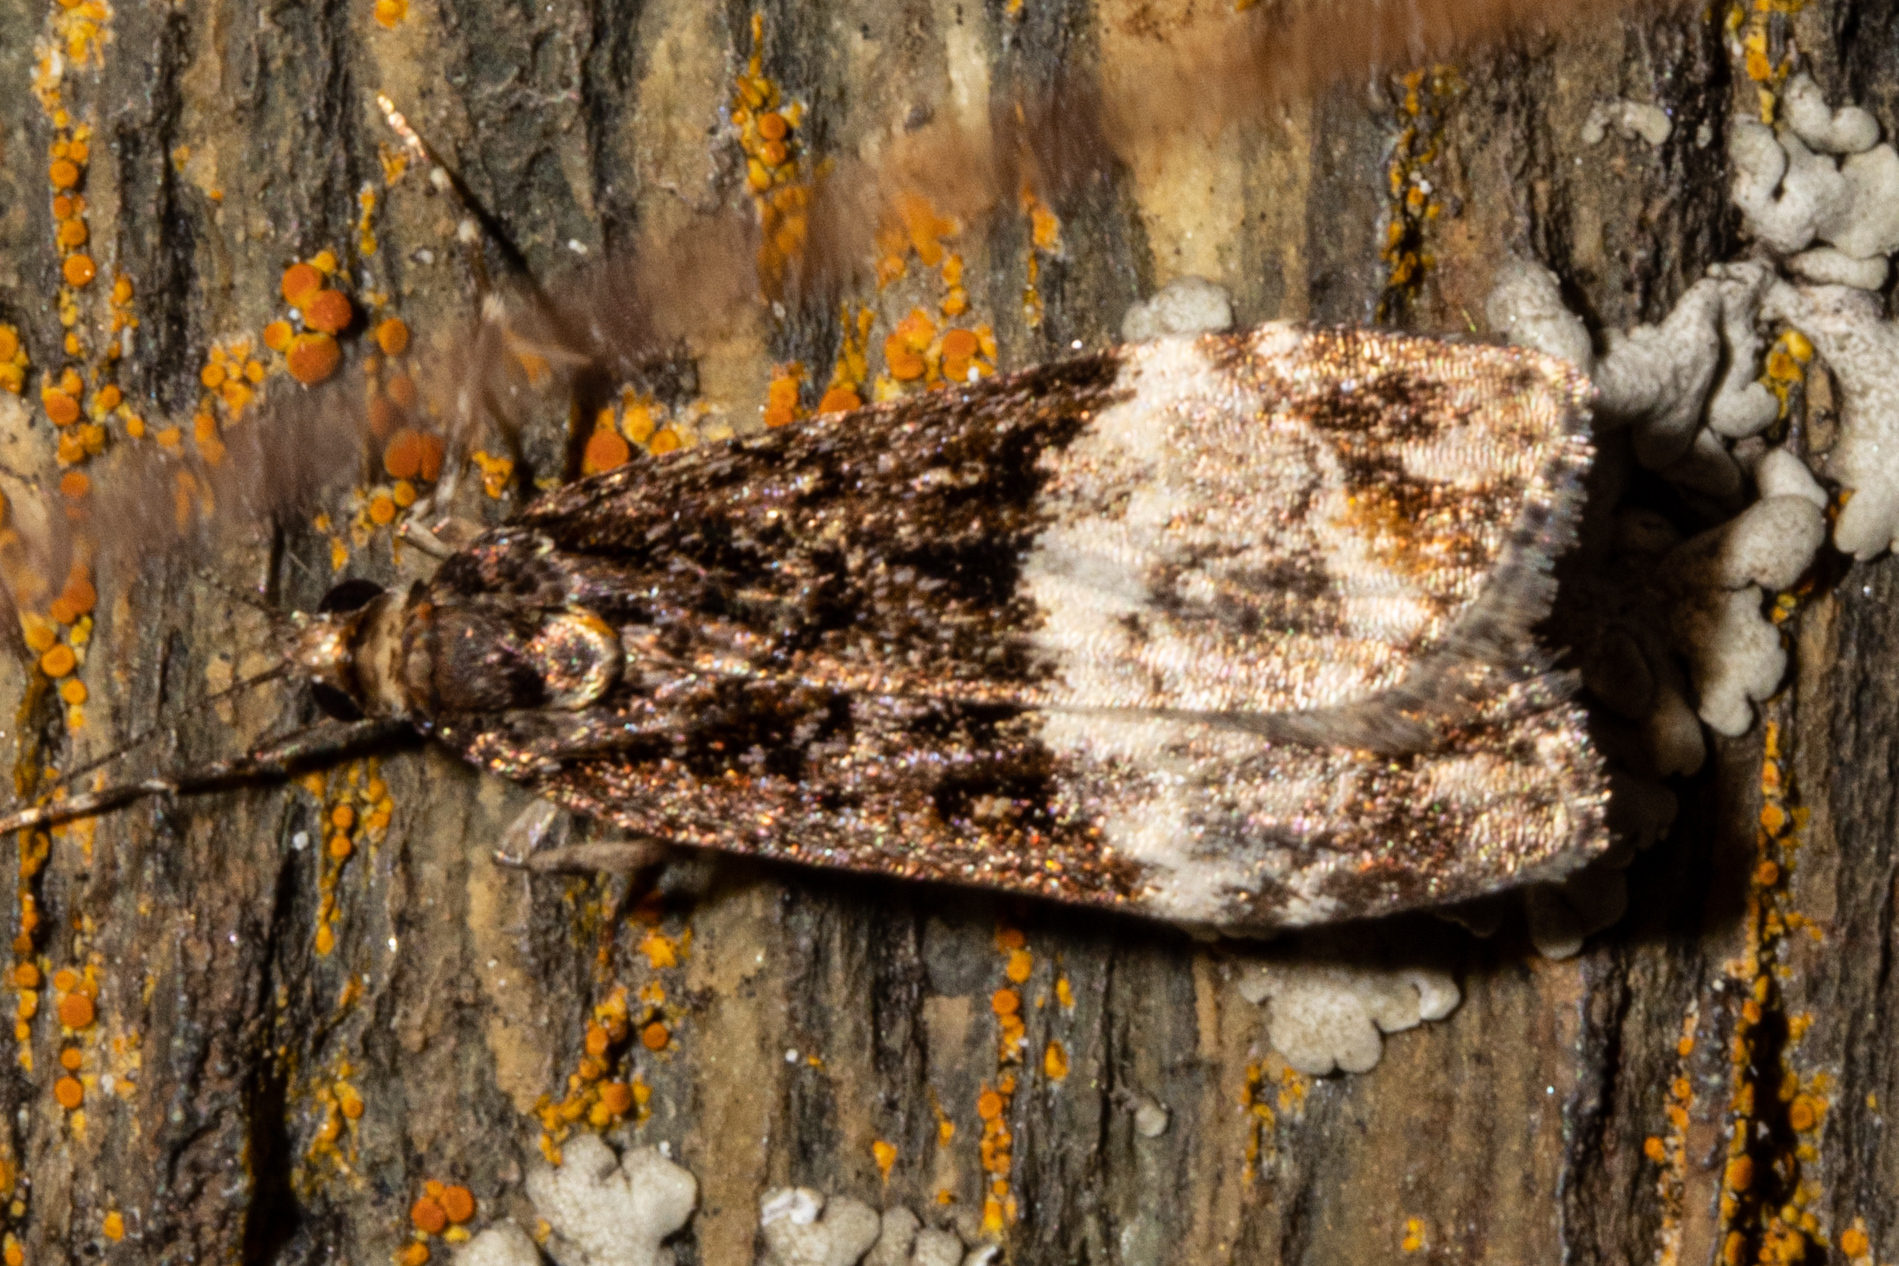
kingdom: Animalia
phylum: Arthropoda
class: Insecta
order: Lepidoptera
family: Crambidae
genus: Scoparia
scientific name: Scoparia minusculalis
